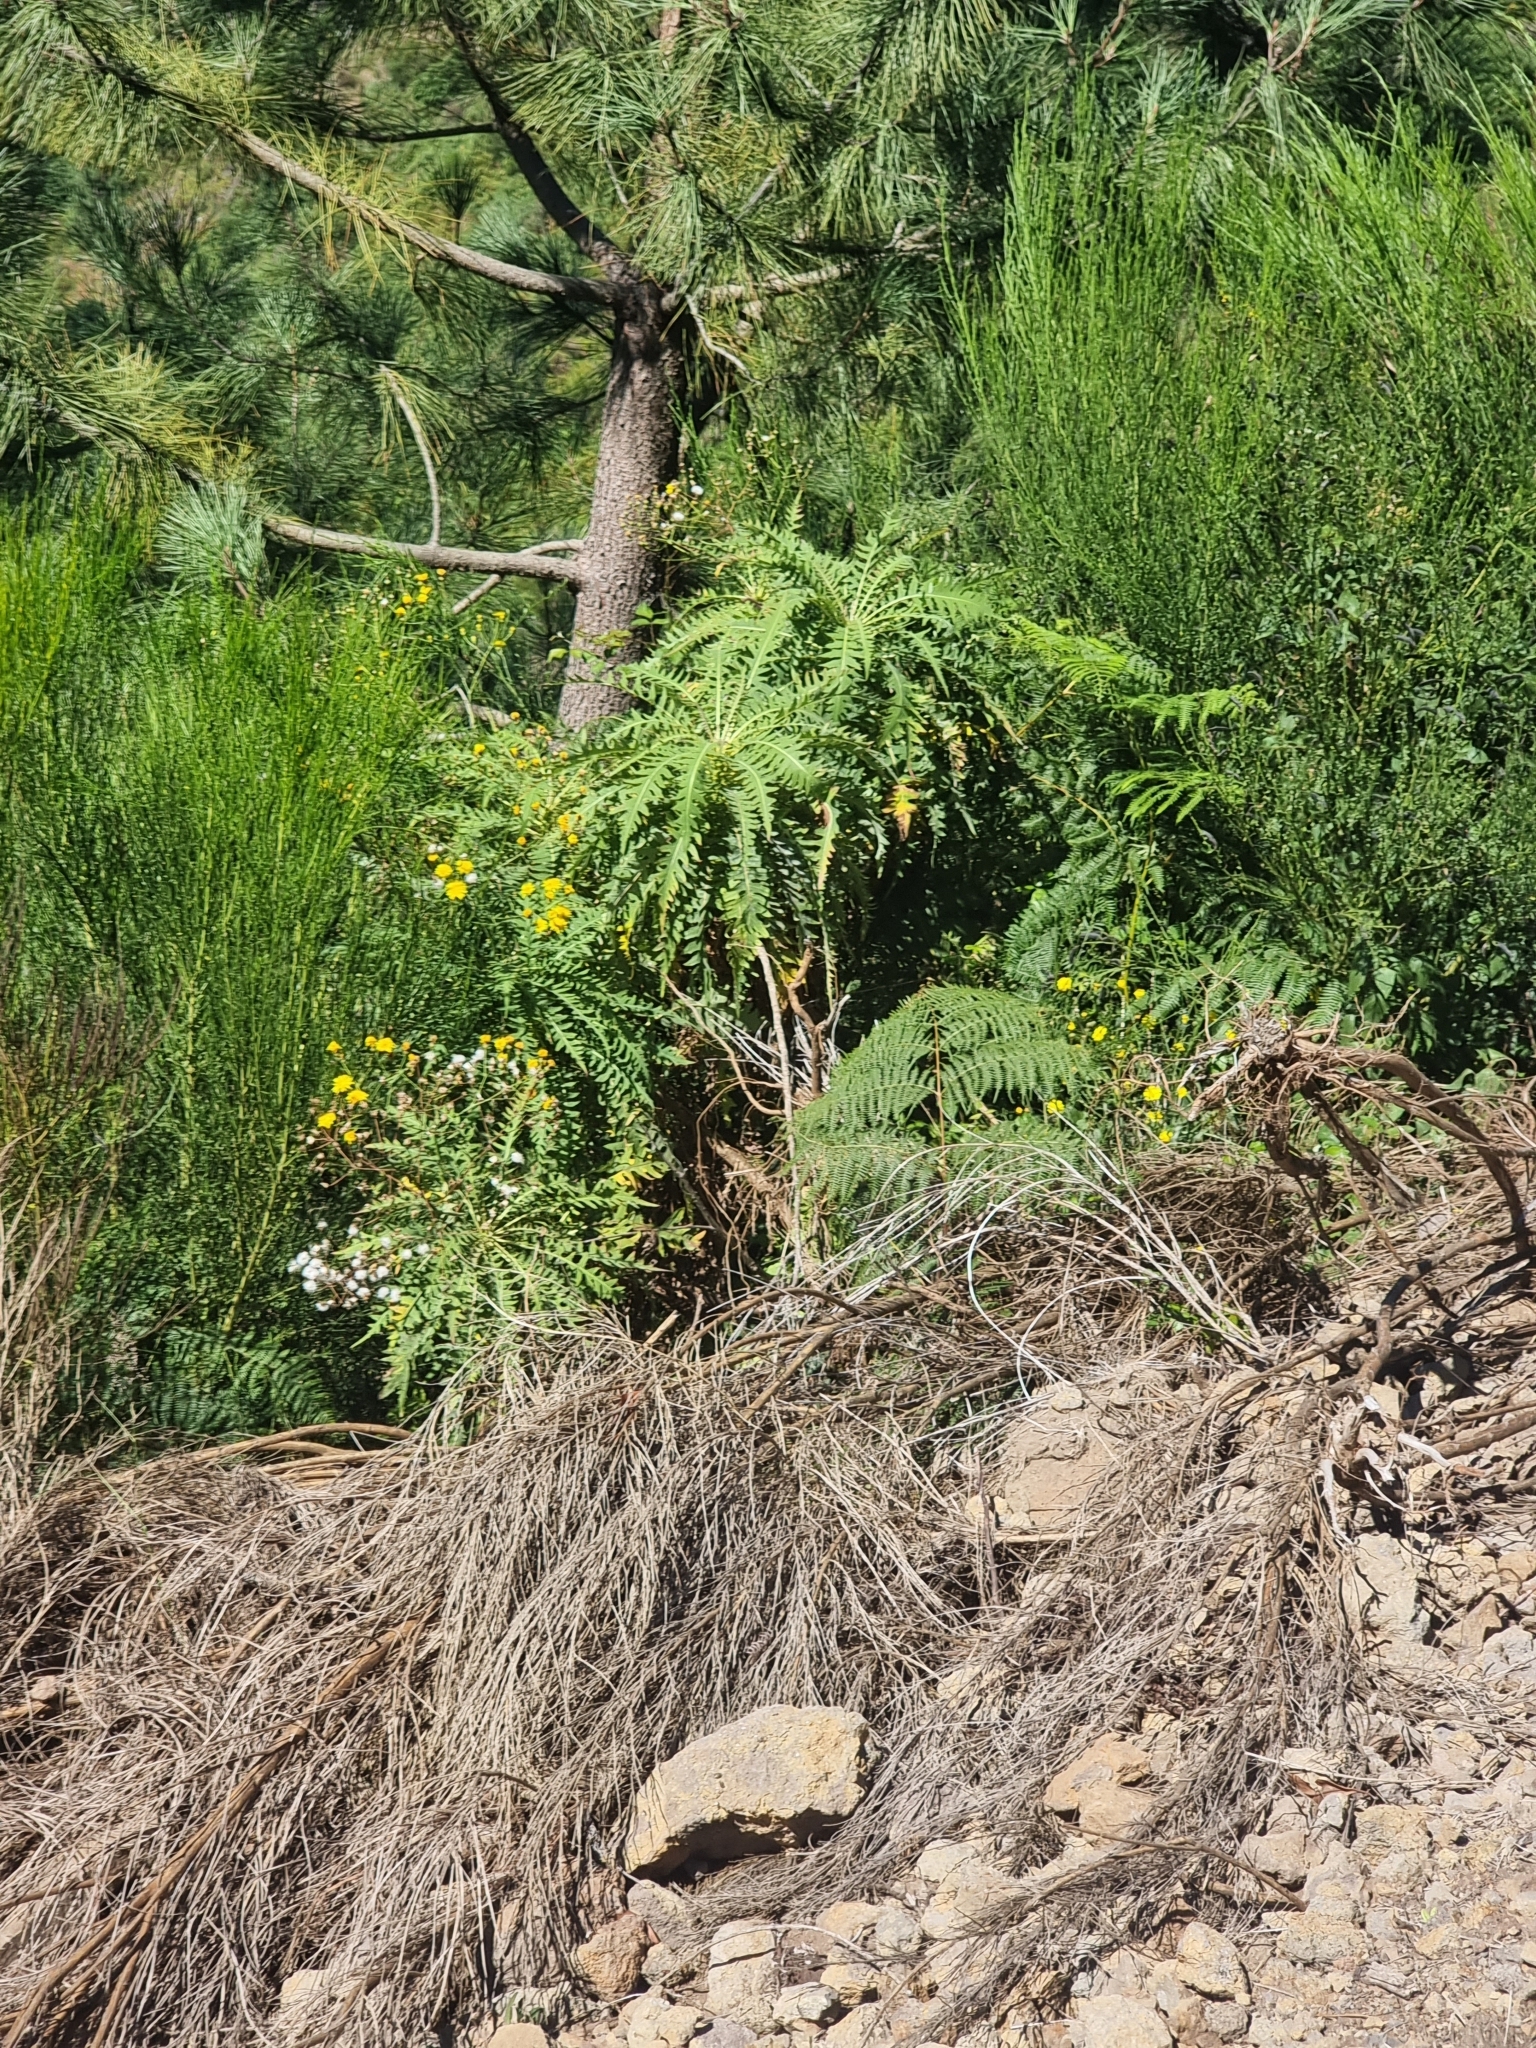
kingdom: Plantae
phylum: Tracheophyta
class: Magnoliopsida
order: Asterales
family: Asteraceae
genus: Sonchus
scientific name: Sonchus pinnatus
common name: Wing-leaved sow-thistle
